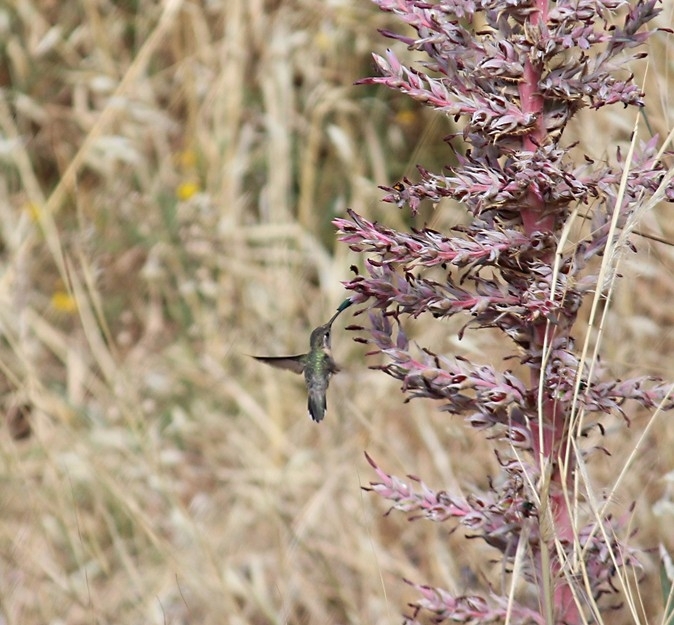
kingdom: Animalia
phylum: Chordata
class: Aves
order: Apodiformes
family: Trochilidae
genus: Rhodopis
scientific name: Rhodopis vesper
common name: Oasis hummingbird
